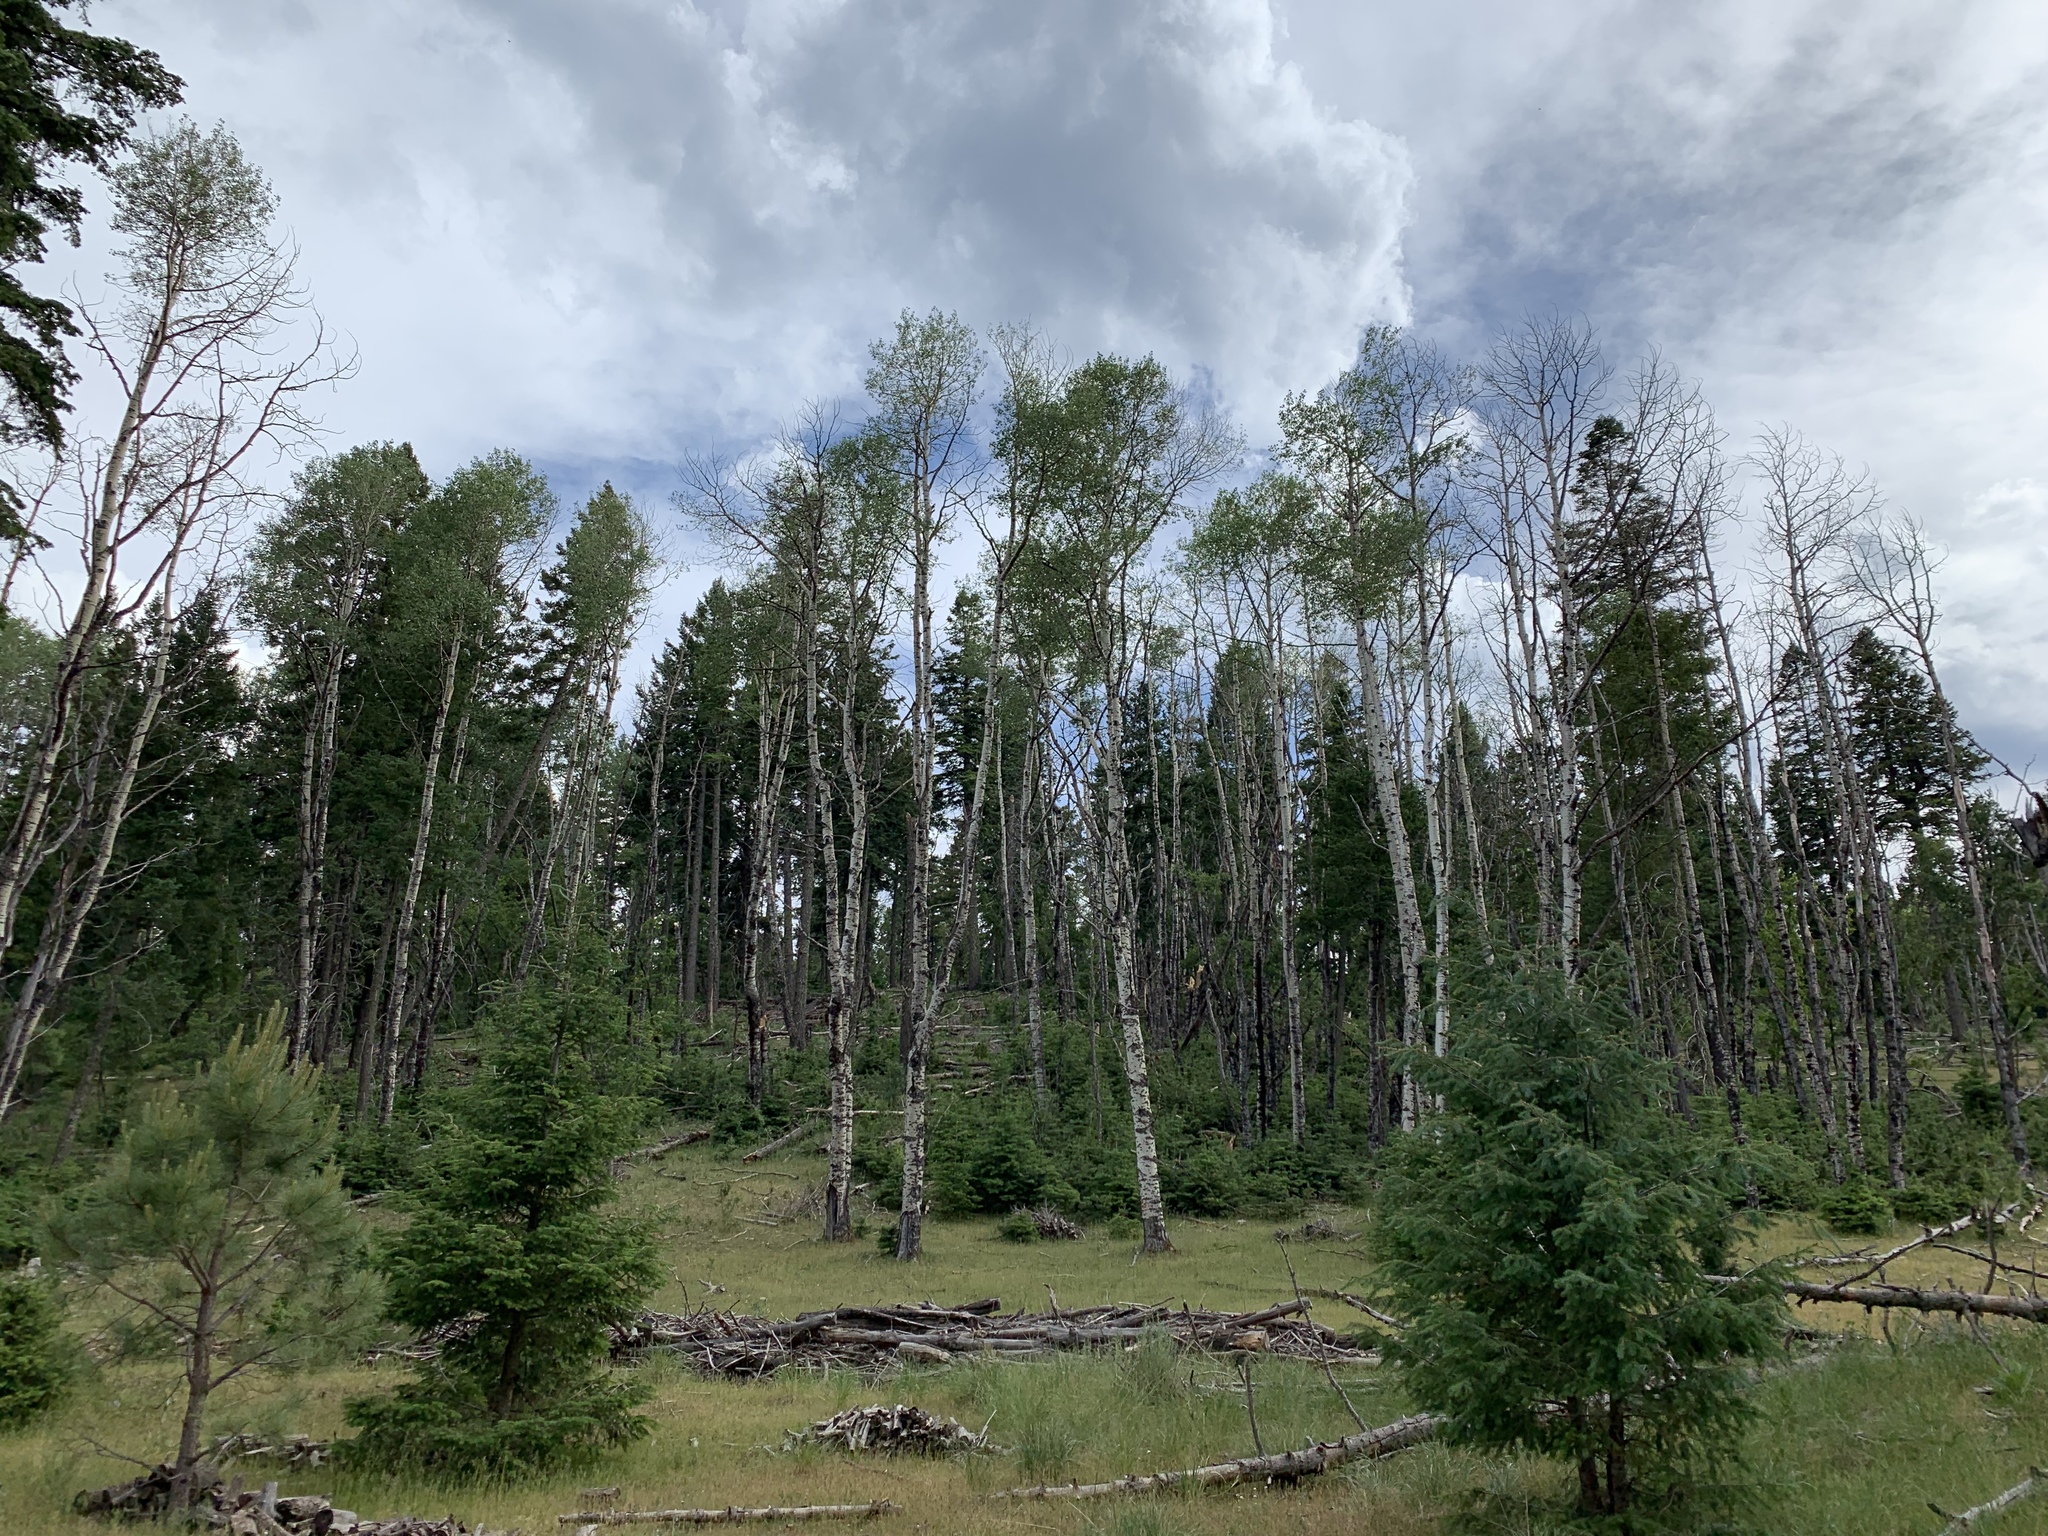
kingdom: Plantae
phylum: Tracheophyta
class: Magnoliopsida
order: Malpighiales
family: Salicaceae
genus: Populus
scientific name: Populus tremuloides
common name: Quaking aspen
